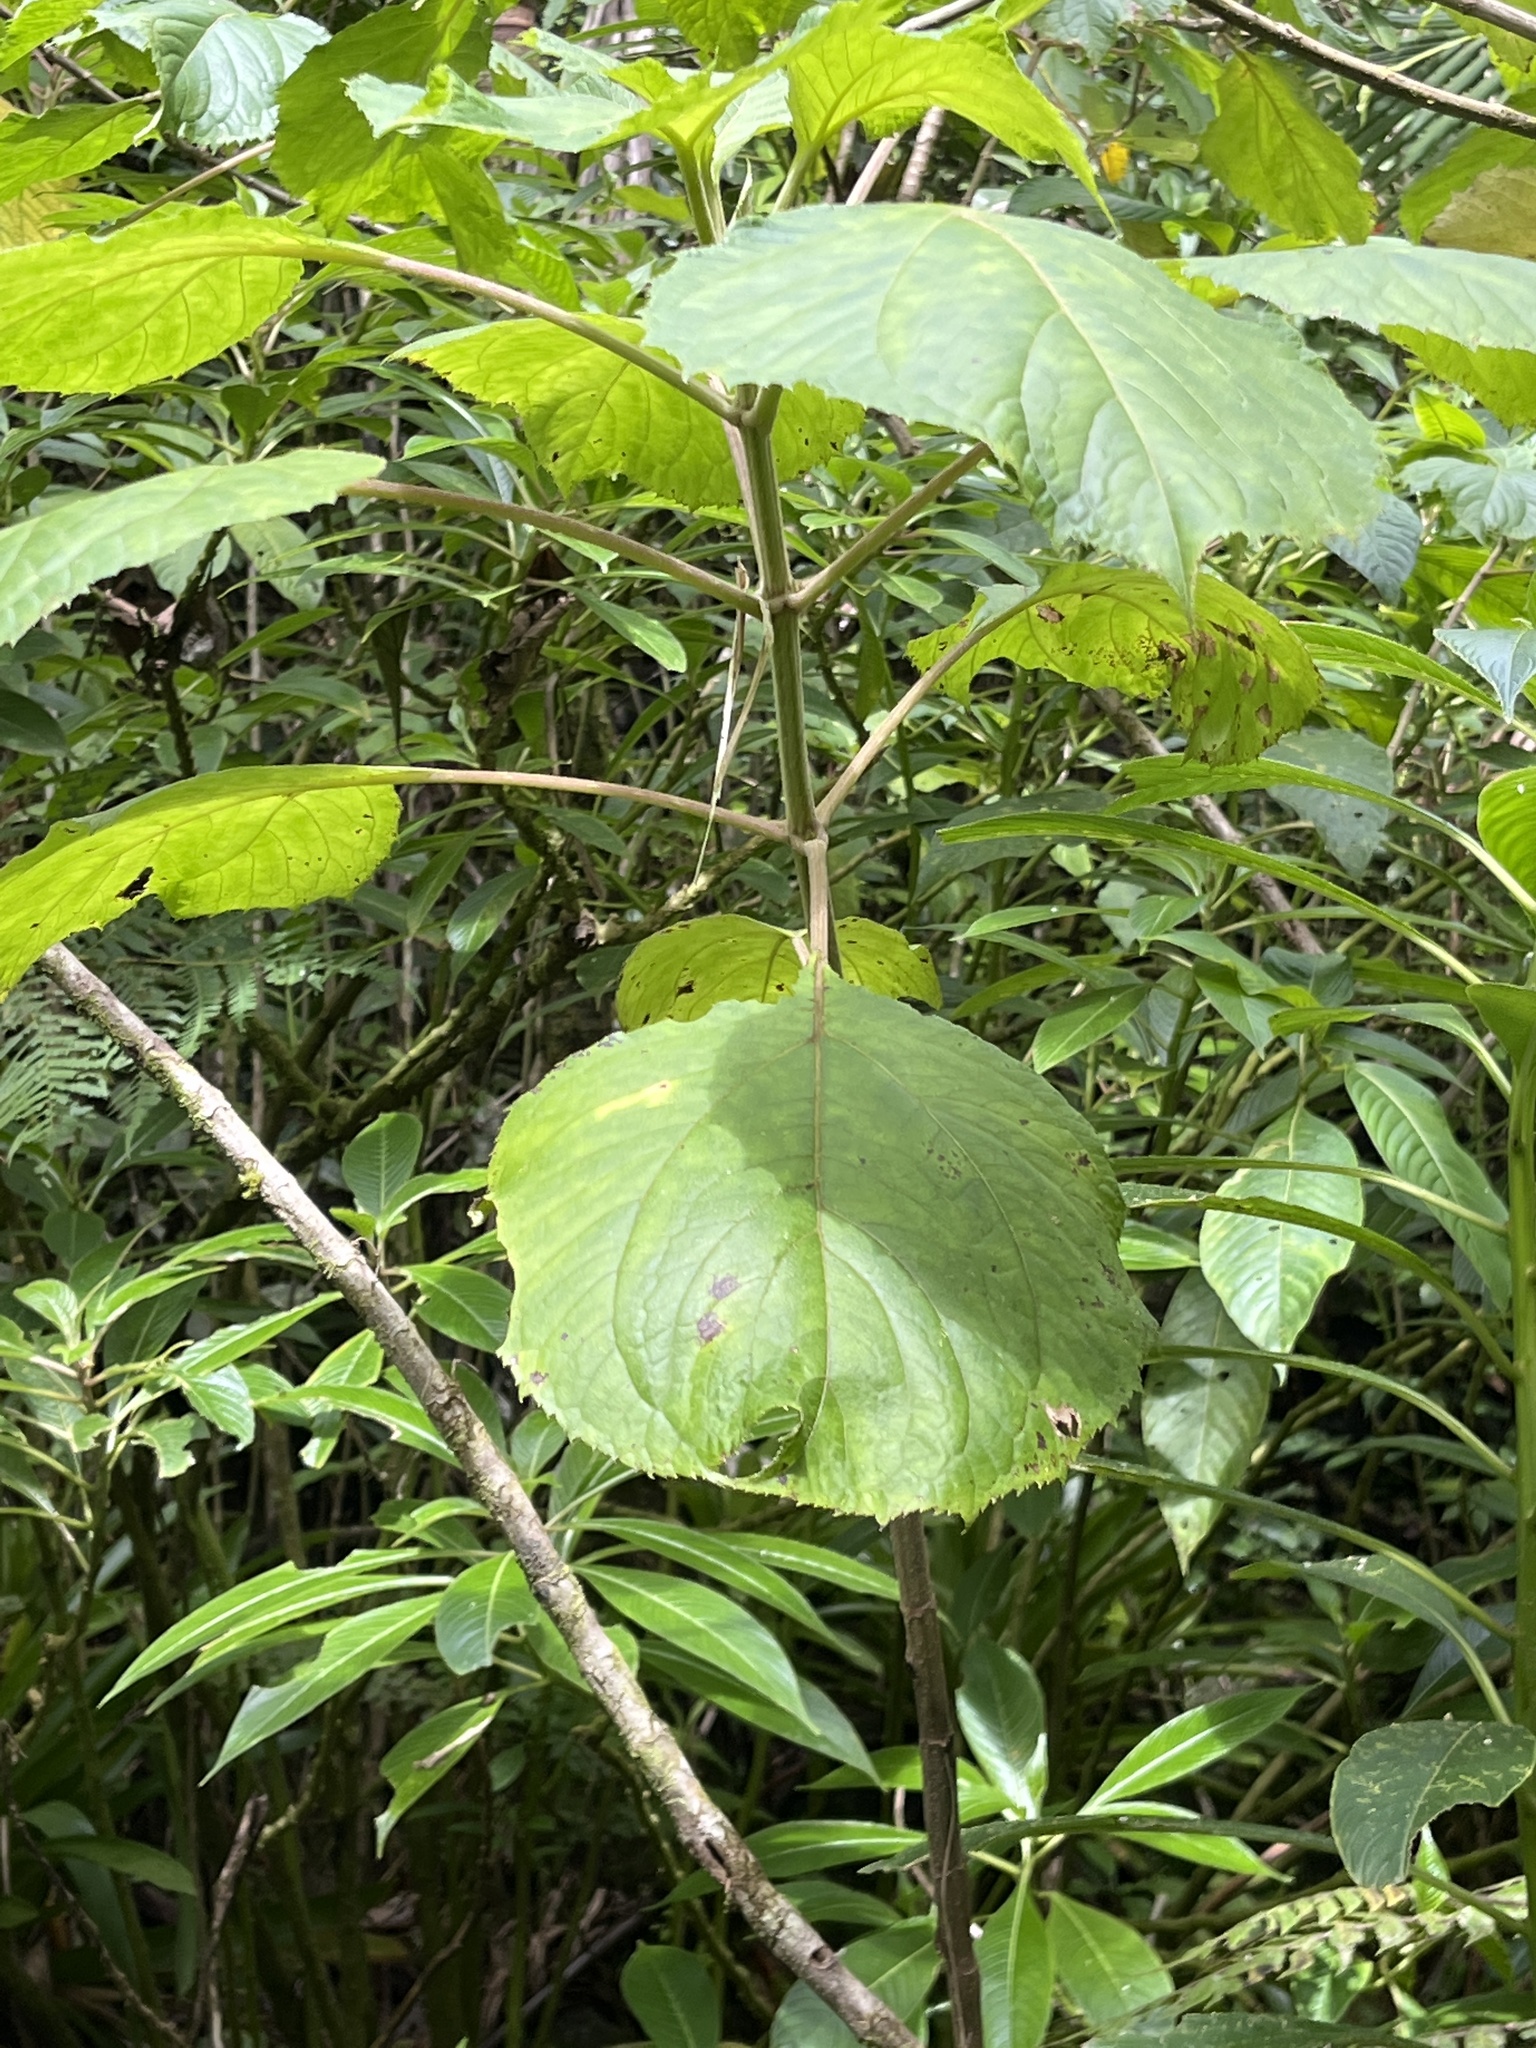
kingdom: Plantae
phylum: Tracheophyta
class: Magnoliopsida
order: Asterales
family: Asteraceae
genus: Clibadium
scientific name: Clibadium erosum
